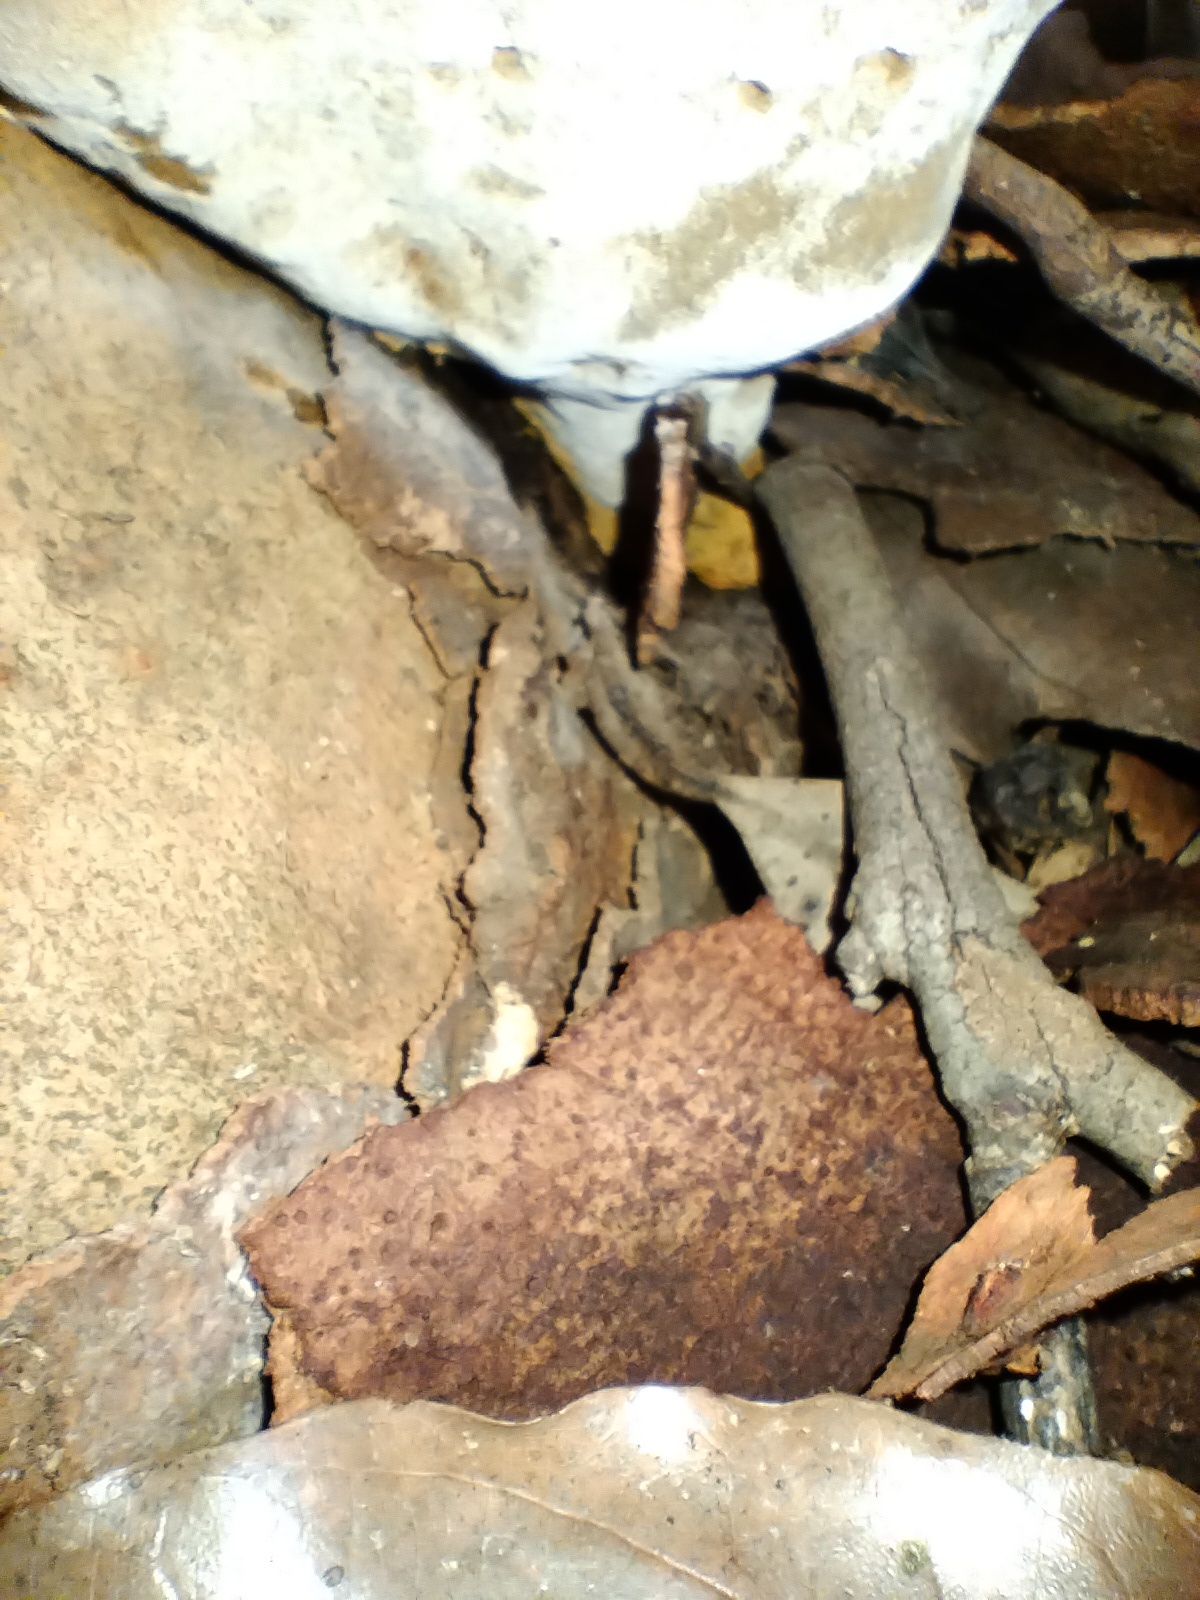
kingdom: Fungi
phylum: Basidiomycota
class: Agaricomycetes
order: Hymenochaetales
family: Hymenochaetaceae
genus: Inonotus
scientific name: Inonotus albertinii
